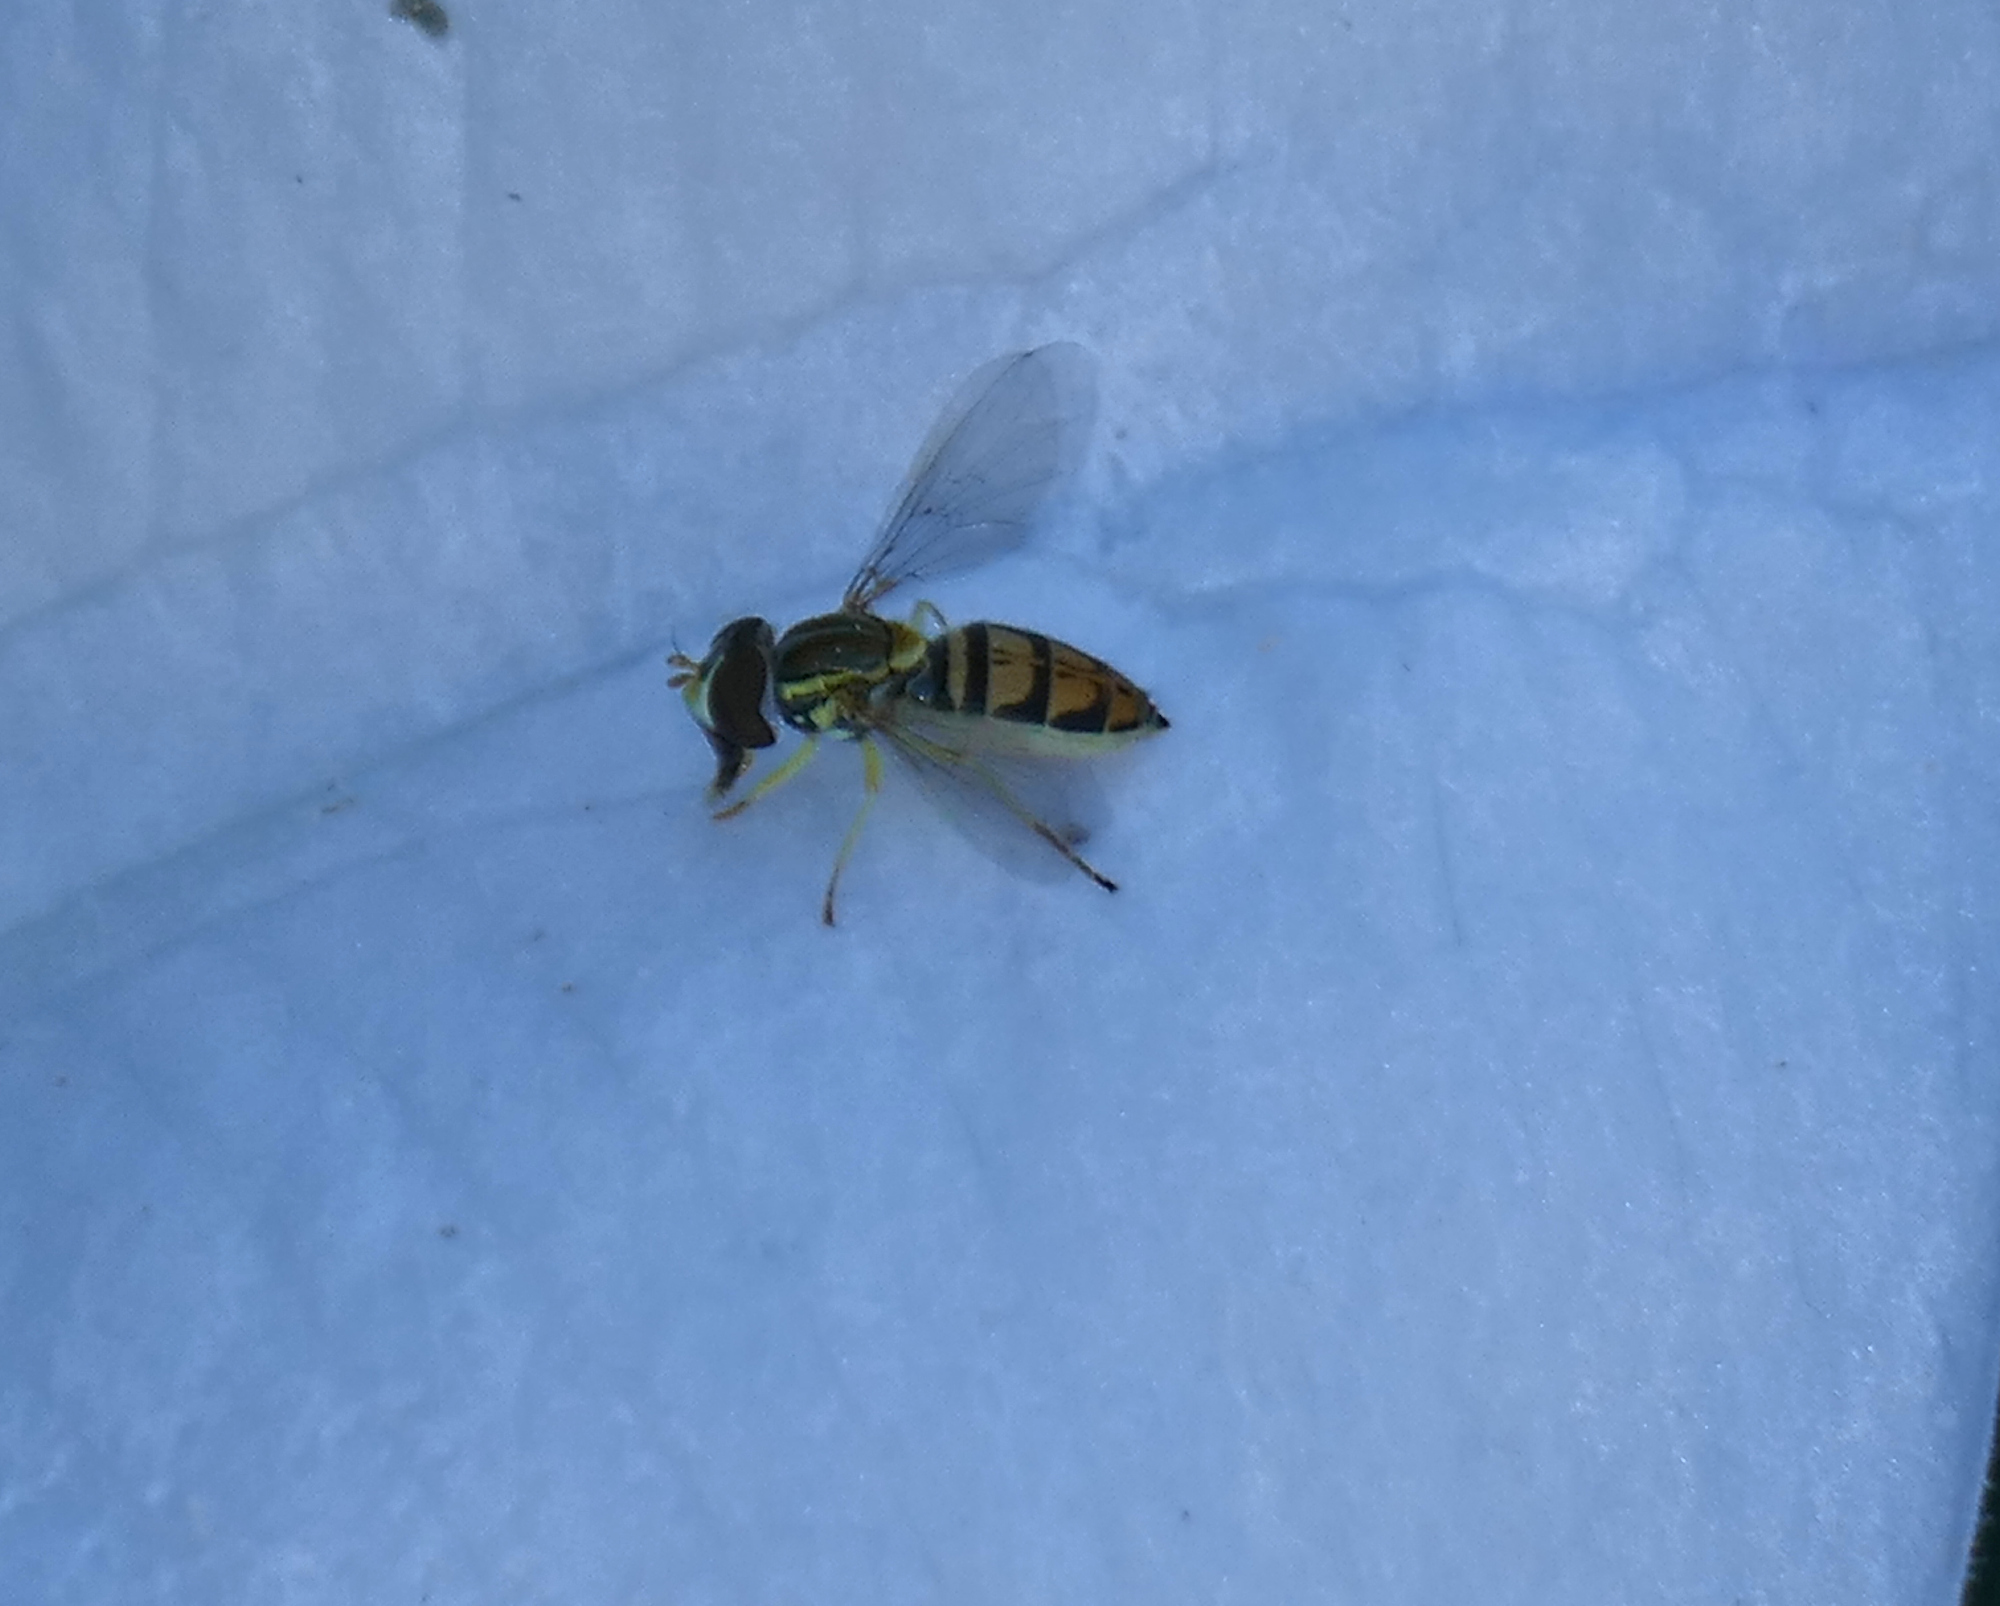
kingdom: Animalia
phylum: Arthropoda
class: Insecta
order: Diptera
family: Syrphidae
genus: Toxomerus
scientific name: Toxomerus marginatus
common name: Syrphid fly
